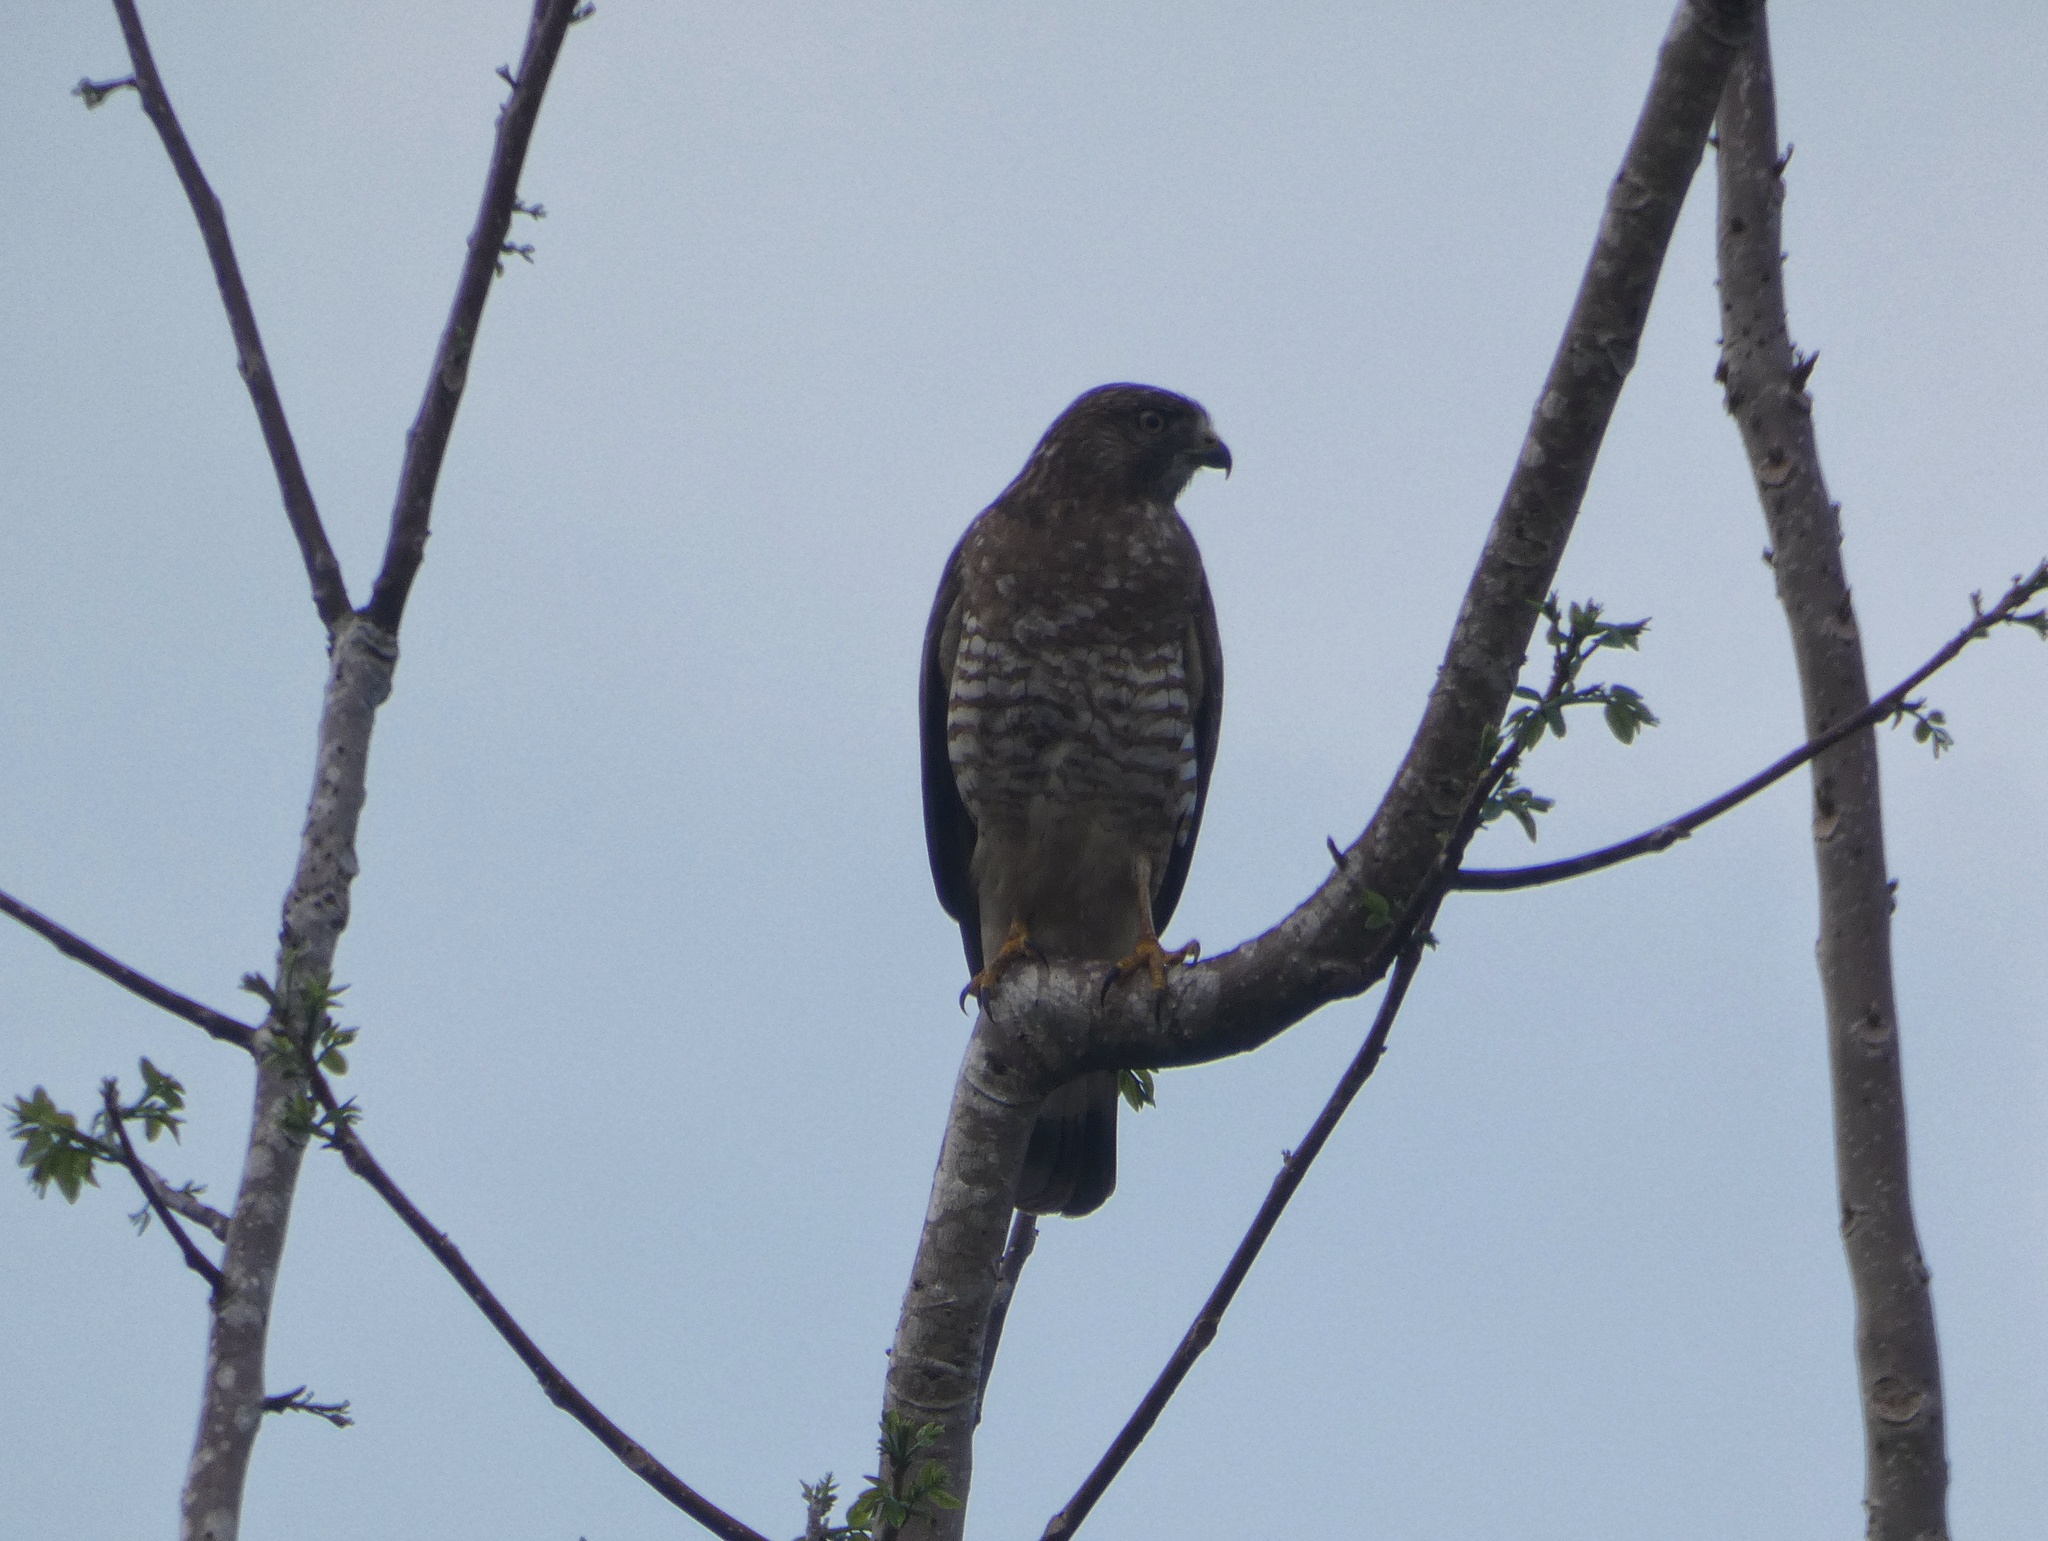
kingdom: Animalia
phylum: Chordata
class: Aves
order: Accipitriformes
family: Accipitridae
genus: Buteo
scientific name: Buteo platypterus
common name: Broad-winged hawk
